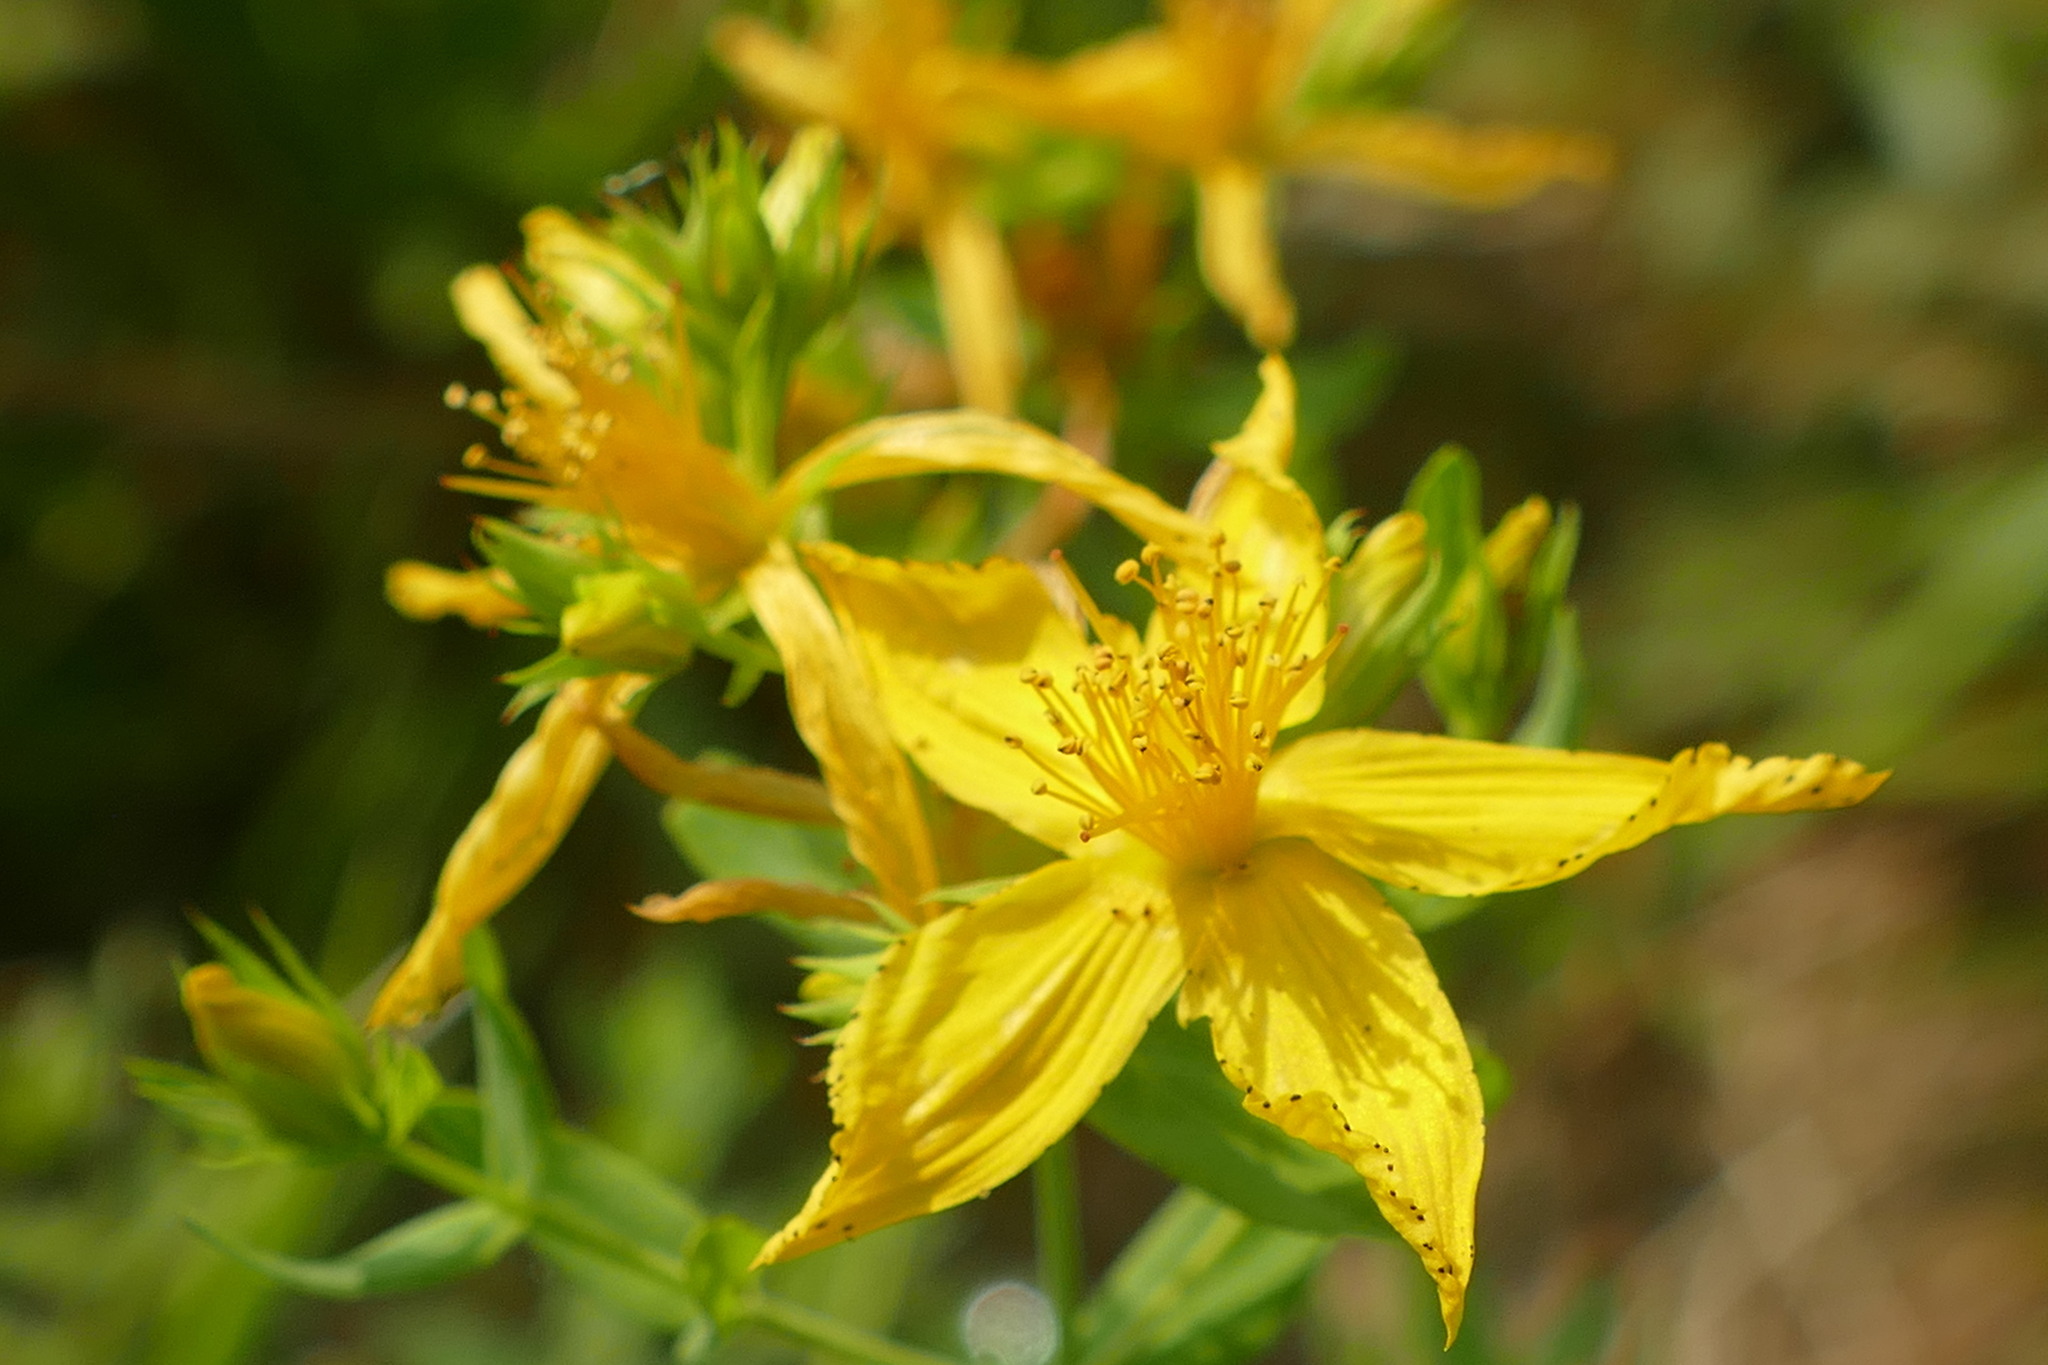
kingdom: Plantae
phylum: Tracheophyta
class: Magnoliopsida
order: Malpighiales
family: Hypericaceae
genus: Hypericum
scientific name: Hypericum perforatum
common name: Common st. johnswort
